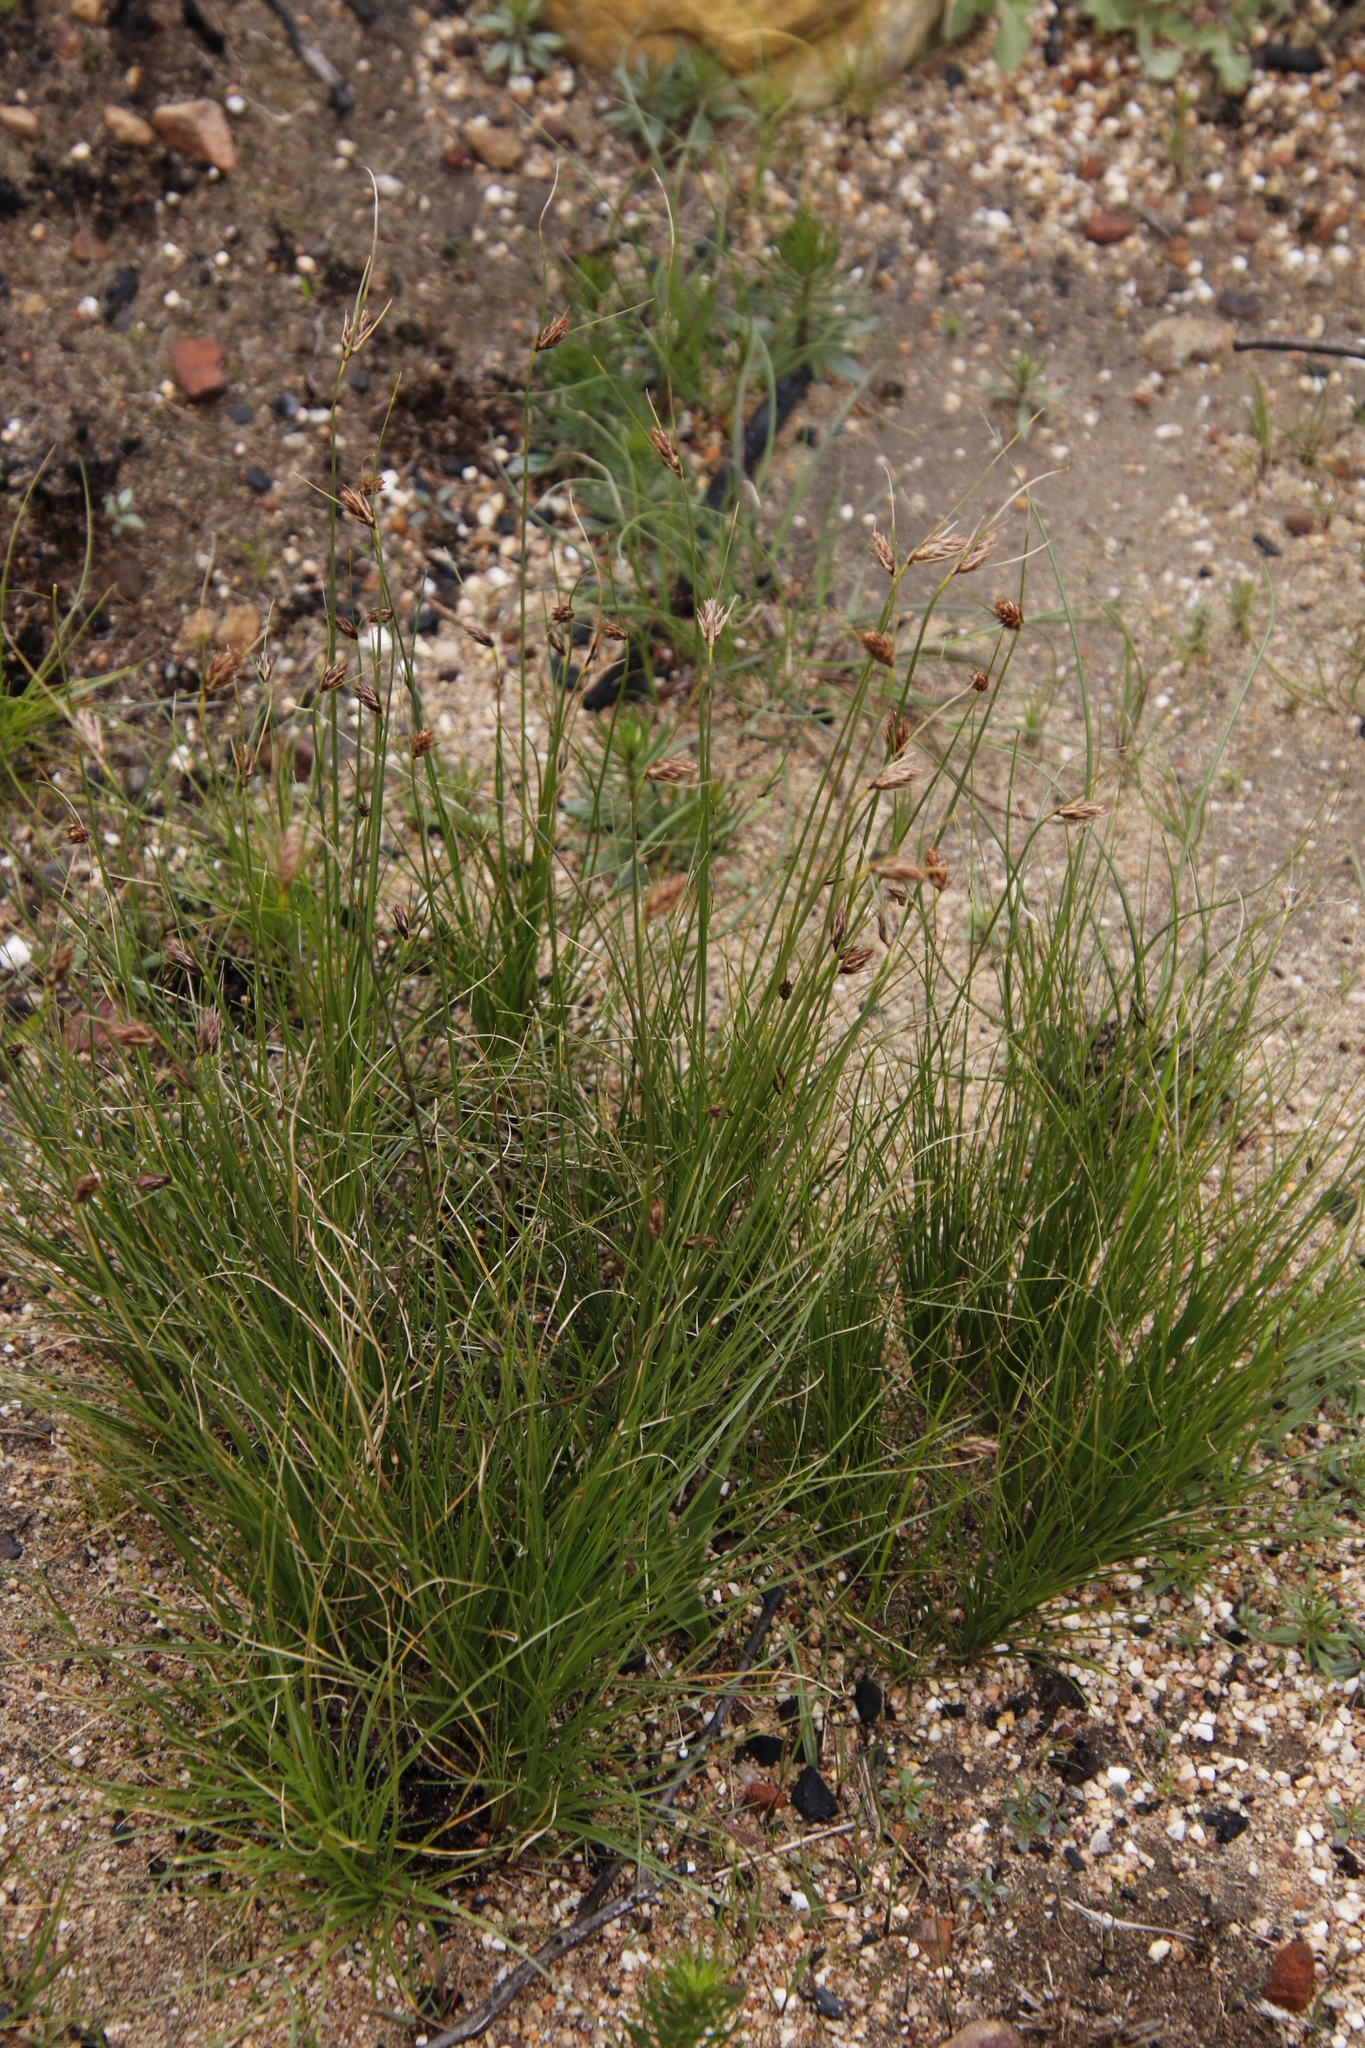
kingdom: Plantae
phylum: Tracheophyta
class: Liliopsida
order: Poales
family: Cyperaceae
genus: Ficinia
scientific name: Ficinia nigrescens
